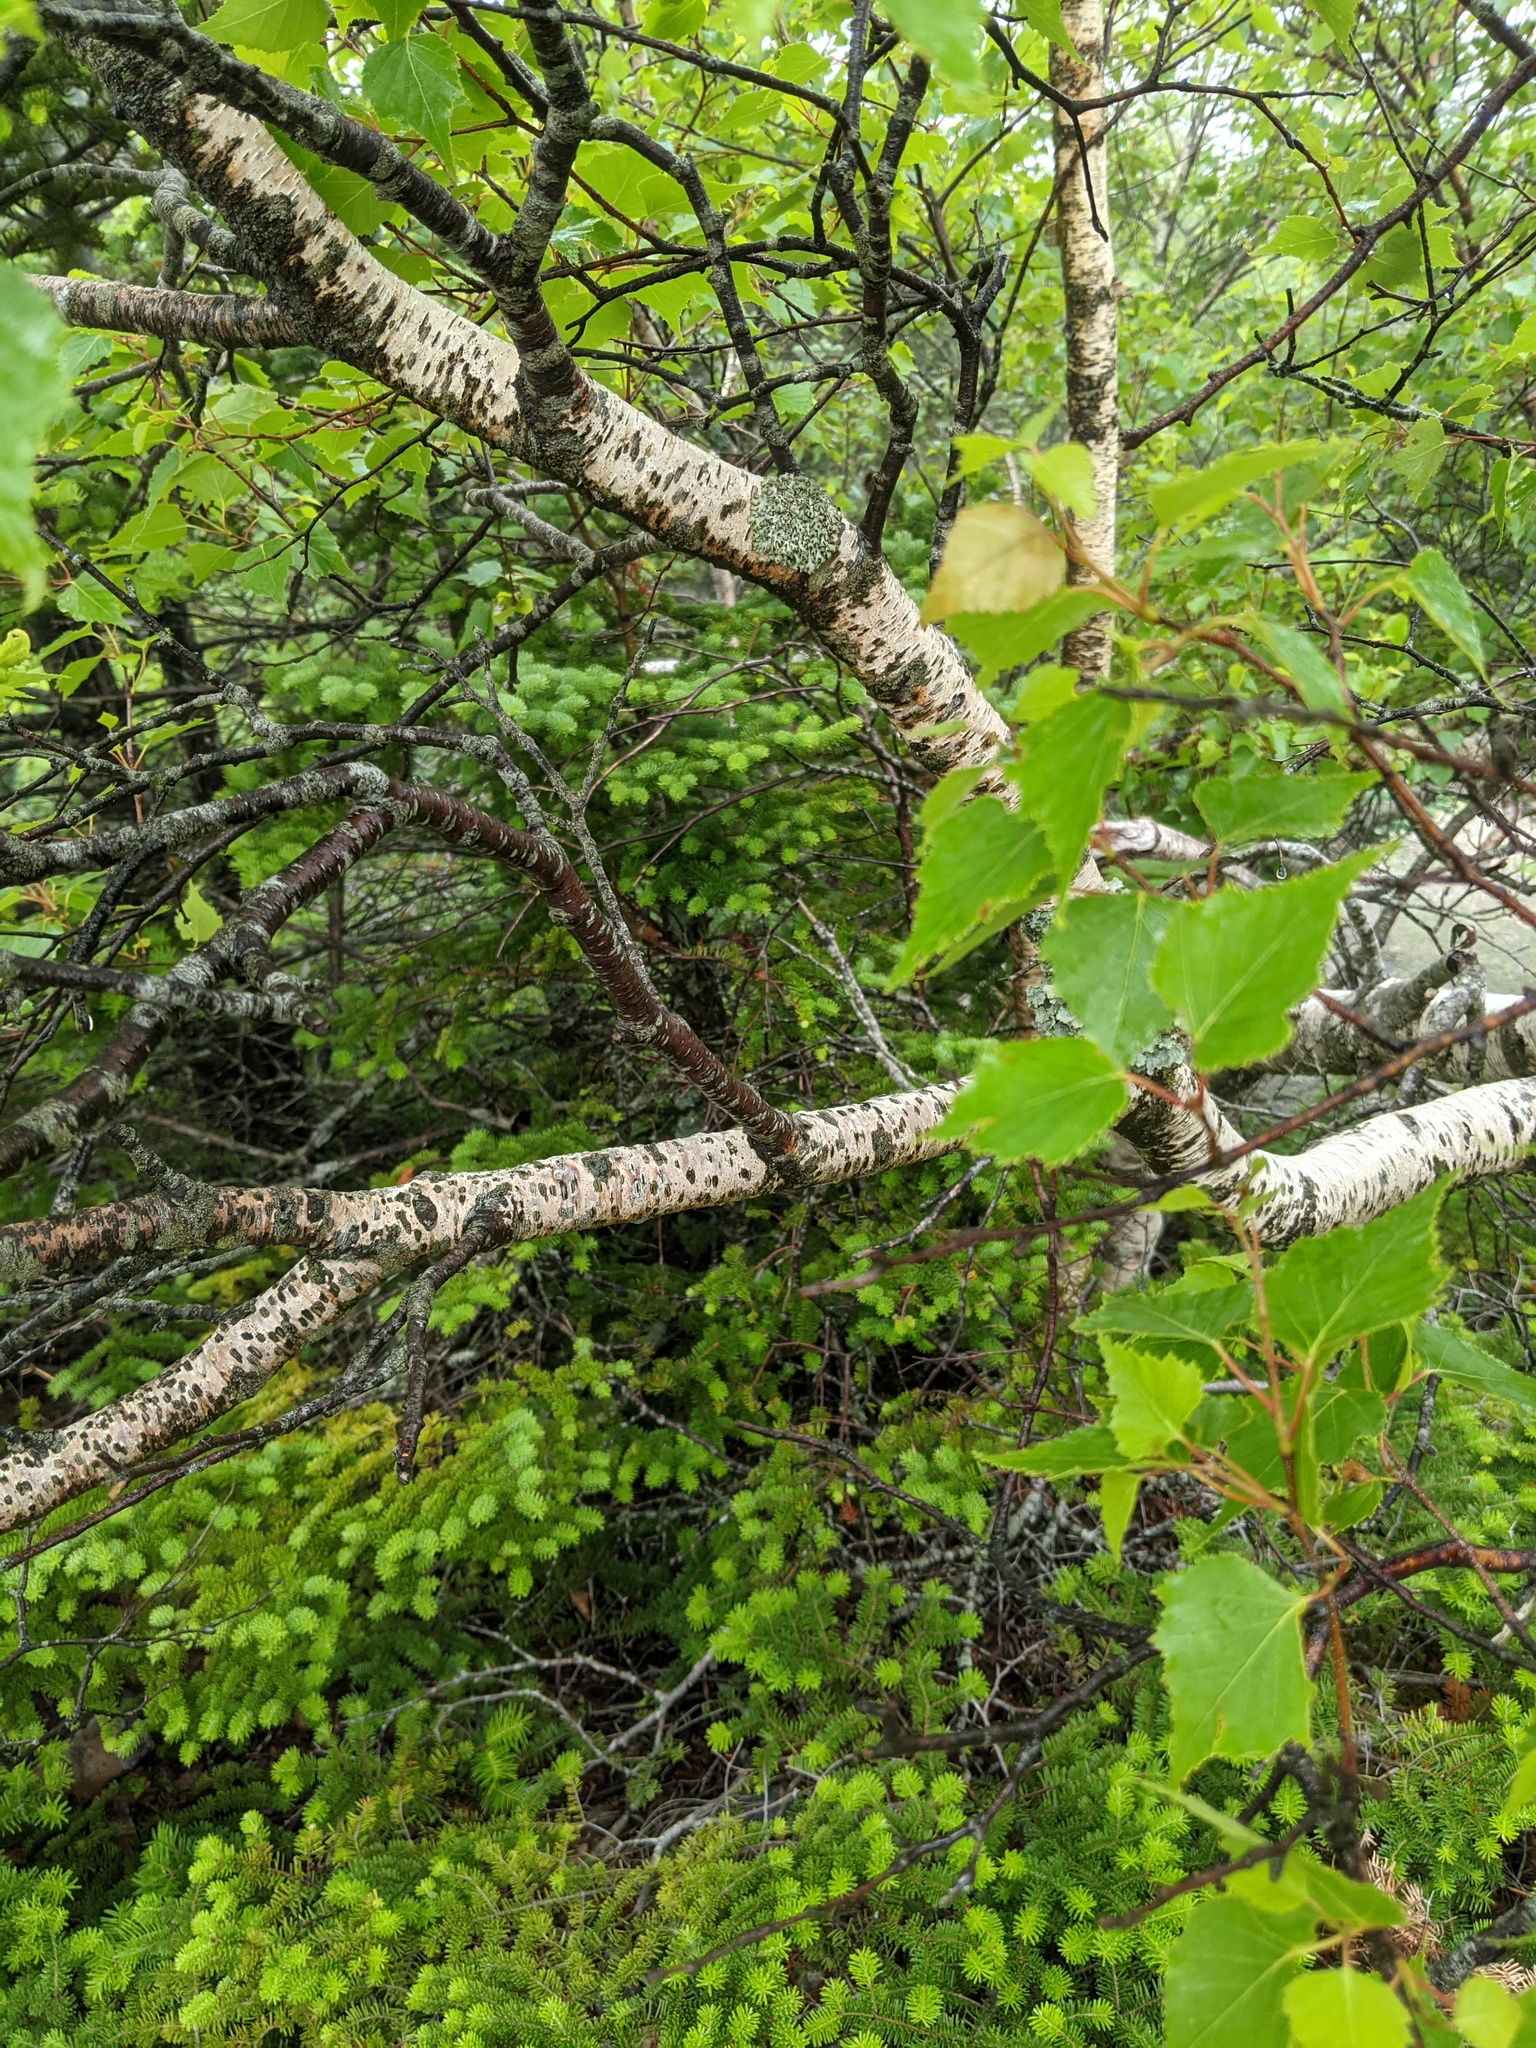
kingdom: Plantae
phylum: Tracheophyta
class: Magnoliopsida
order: Fagales
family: Betulaceae
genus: Betula
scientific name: Betula populifolia
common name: Fire birch
